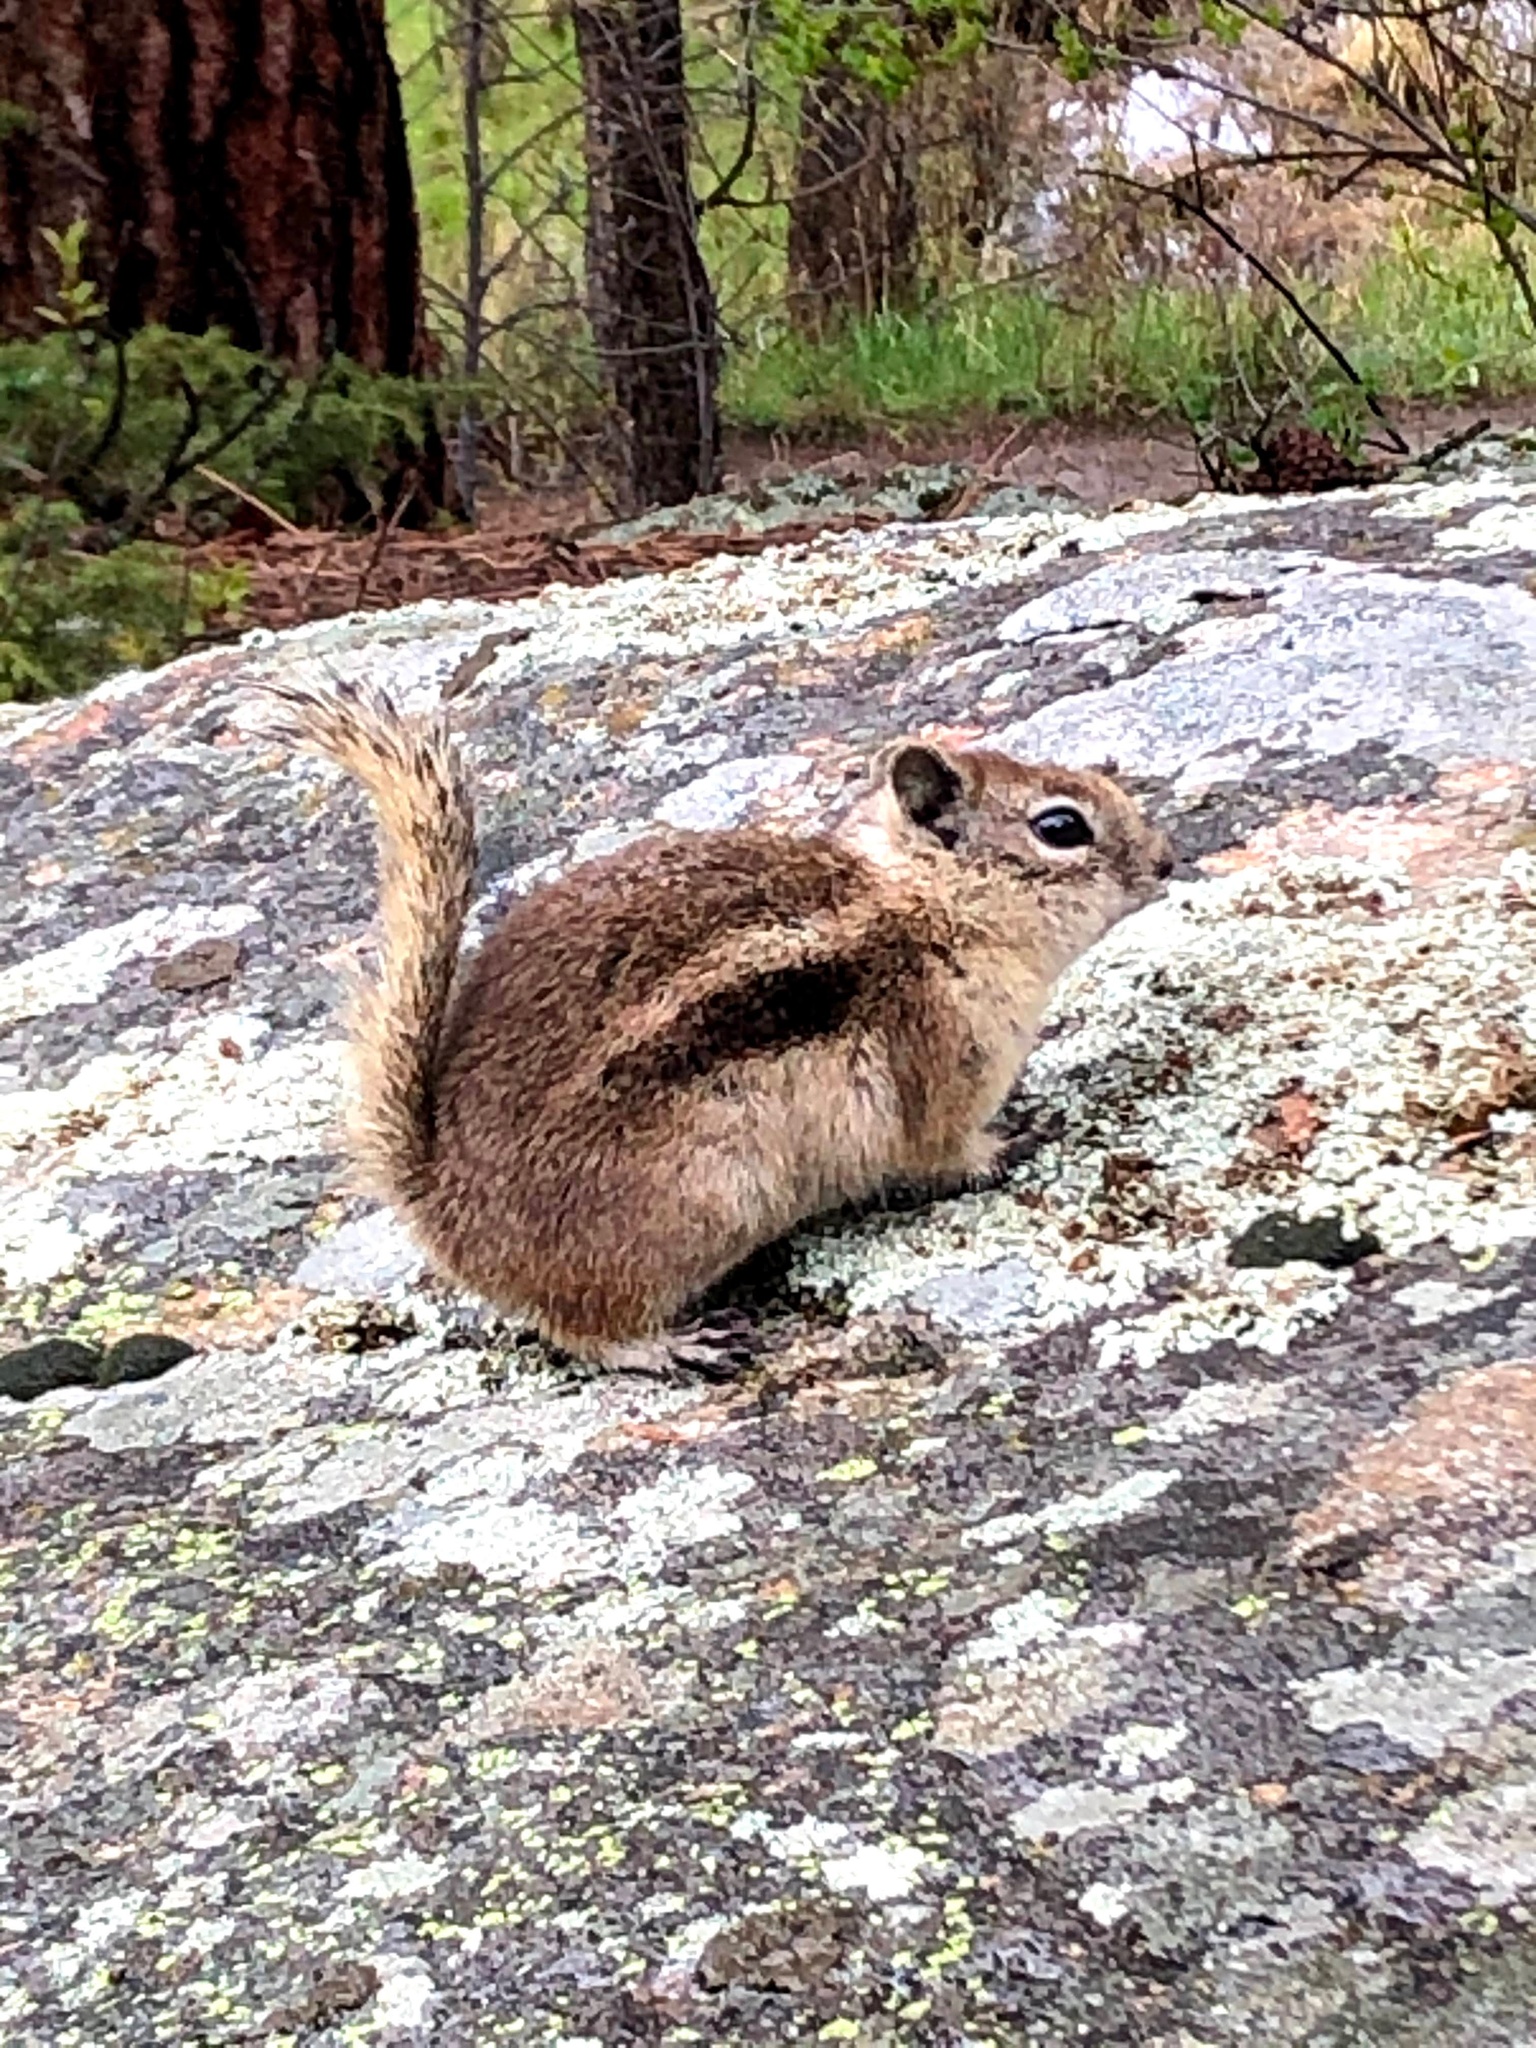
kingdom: Animalia
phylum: Chordata
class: Mammalia
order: Rodentia
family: Sciuridae
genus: Callospermophilus
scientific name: Callospermophilus lateralis
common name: Golden-mantled ground squirrel
